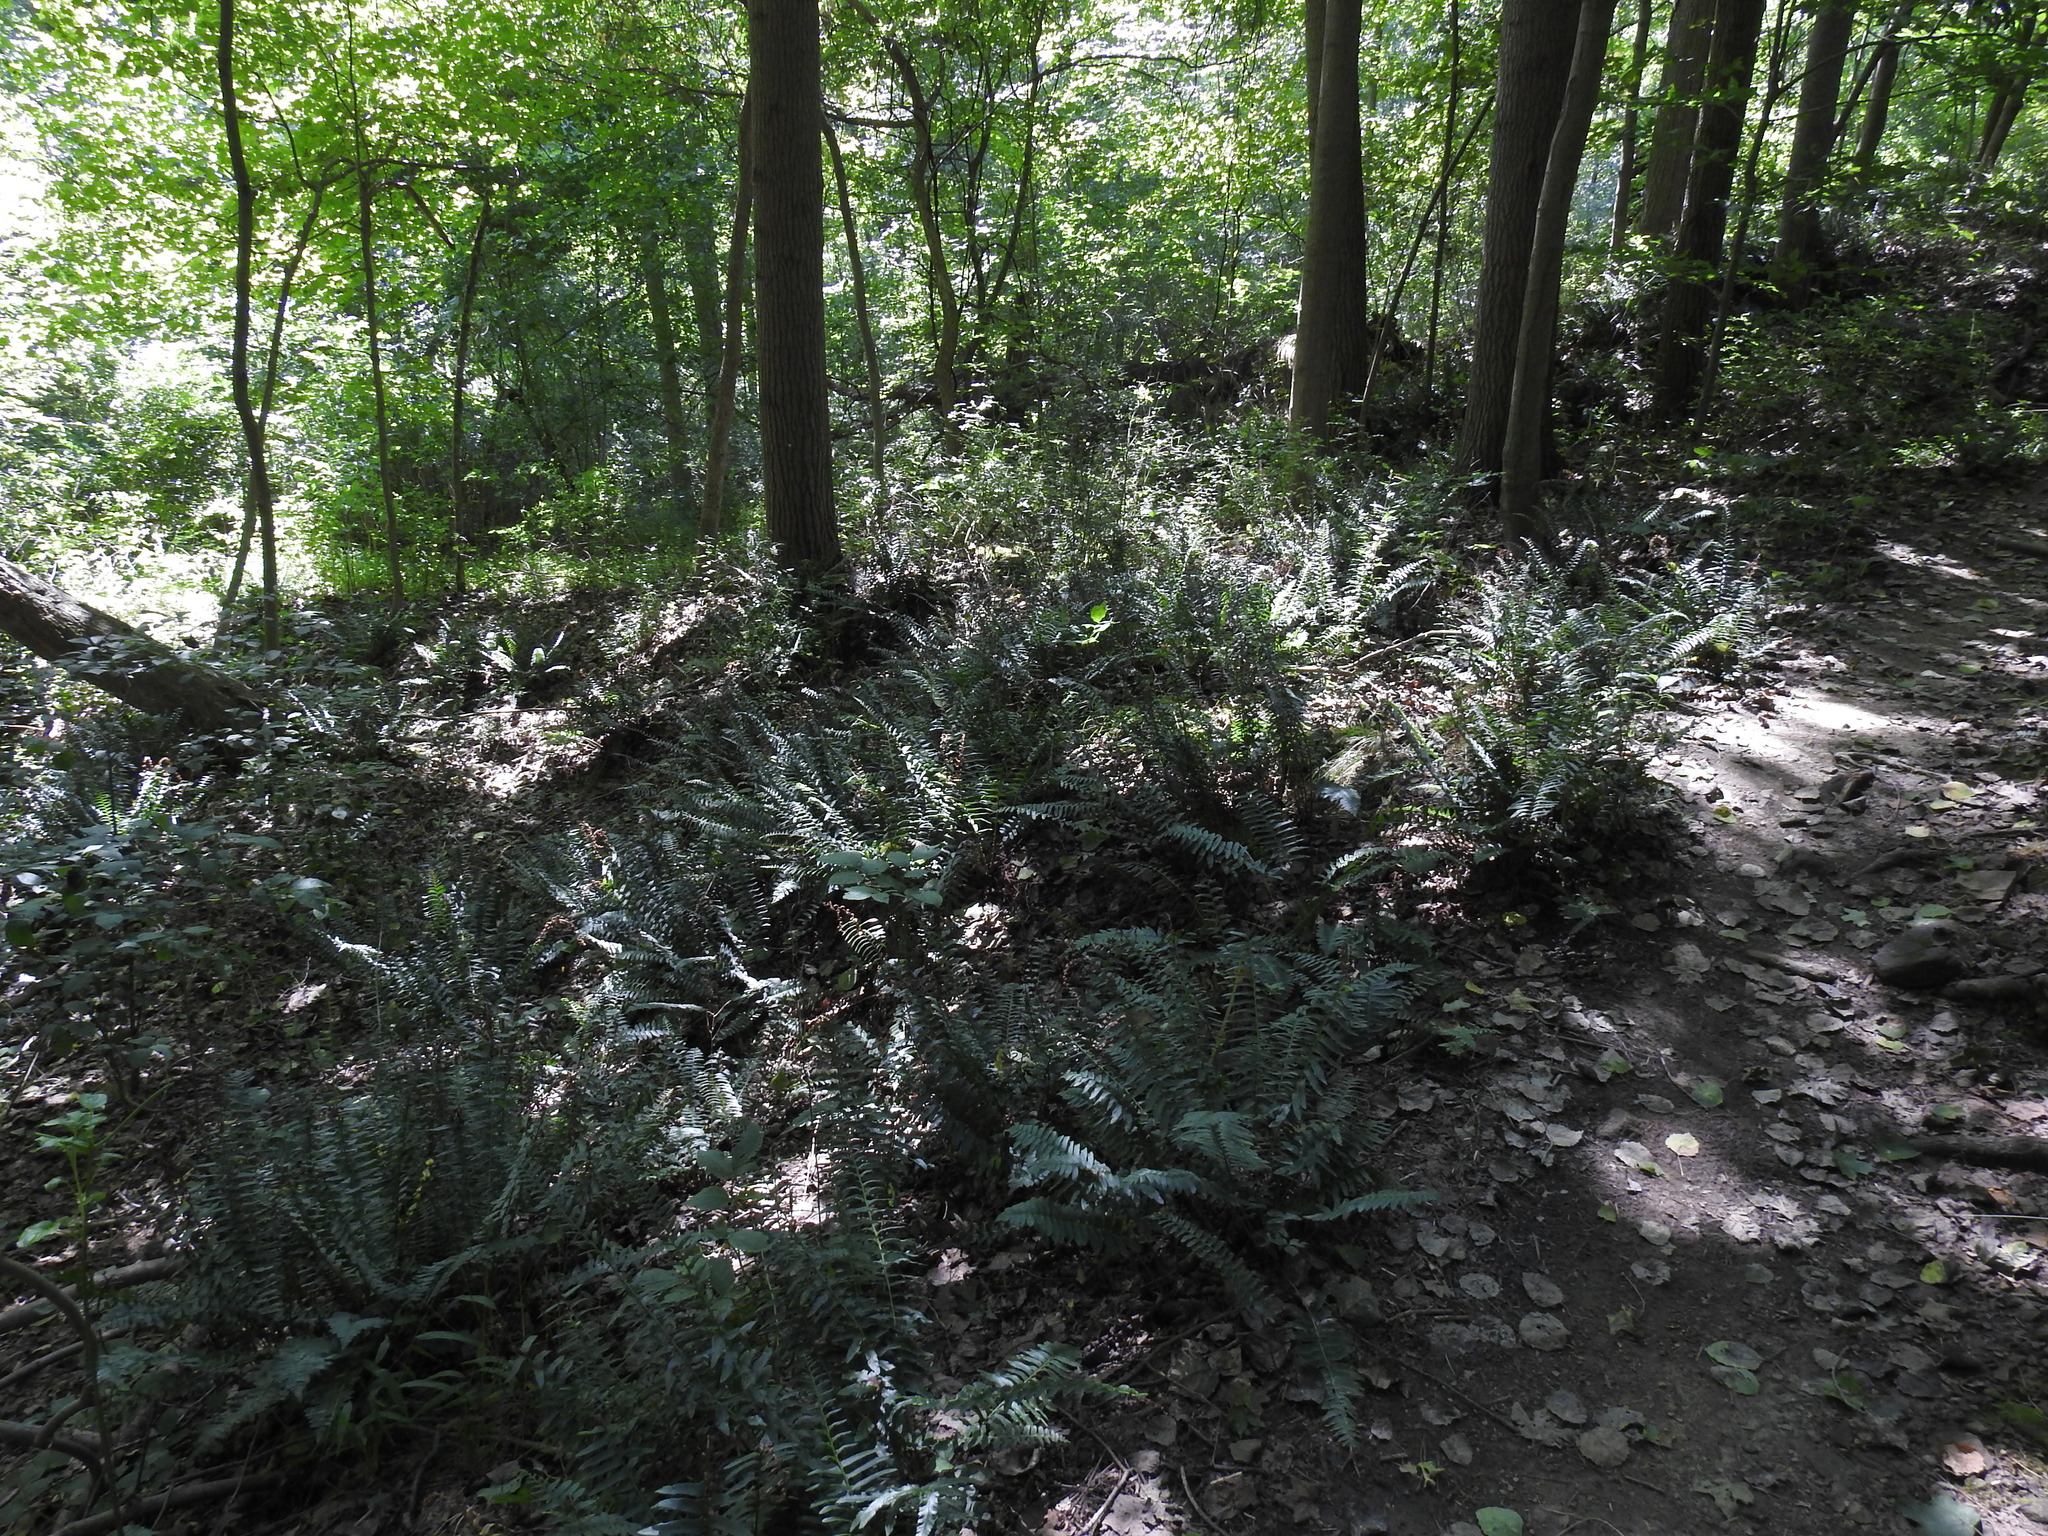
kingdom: Plantae
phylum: Tracheophyta
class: Polypodiopsida
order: Polypodiales
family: Dryopteridaceae
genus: Polystichum
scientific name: Polystichum acrostichoides
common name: Christmas fern
